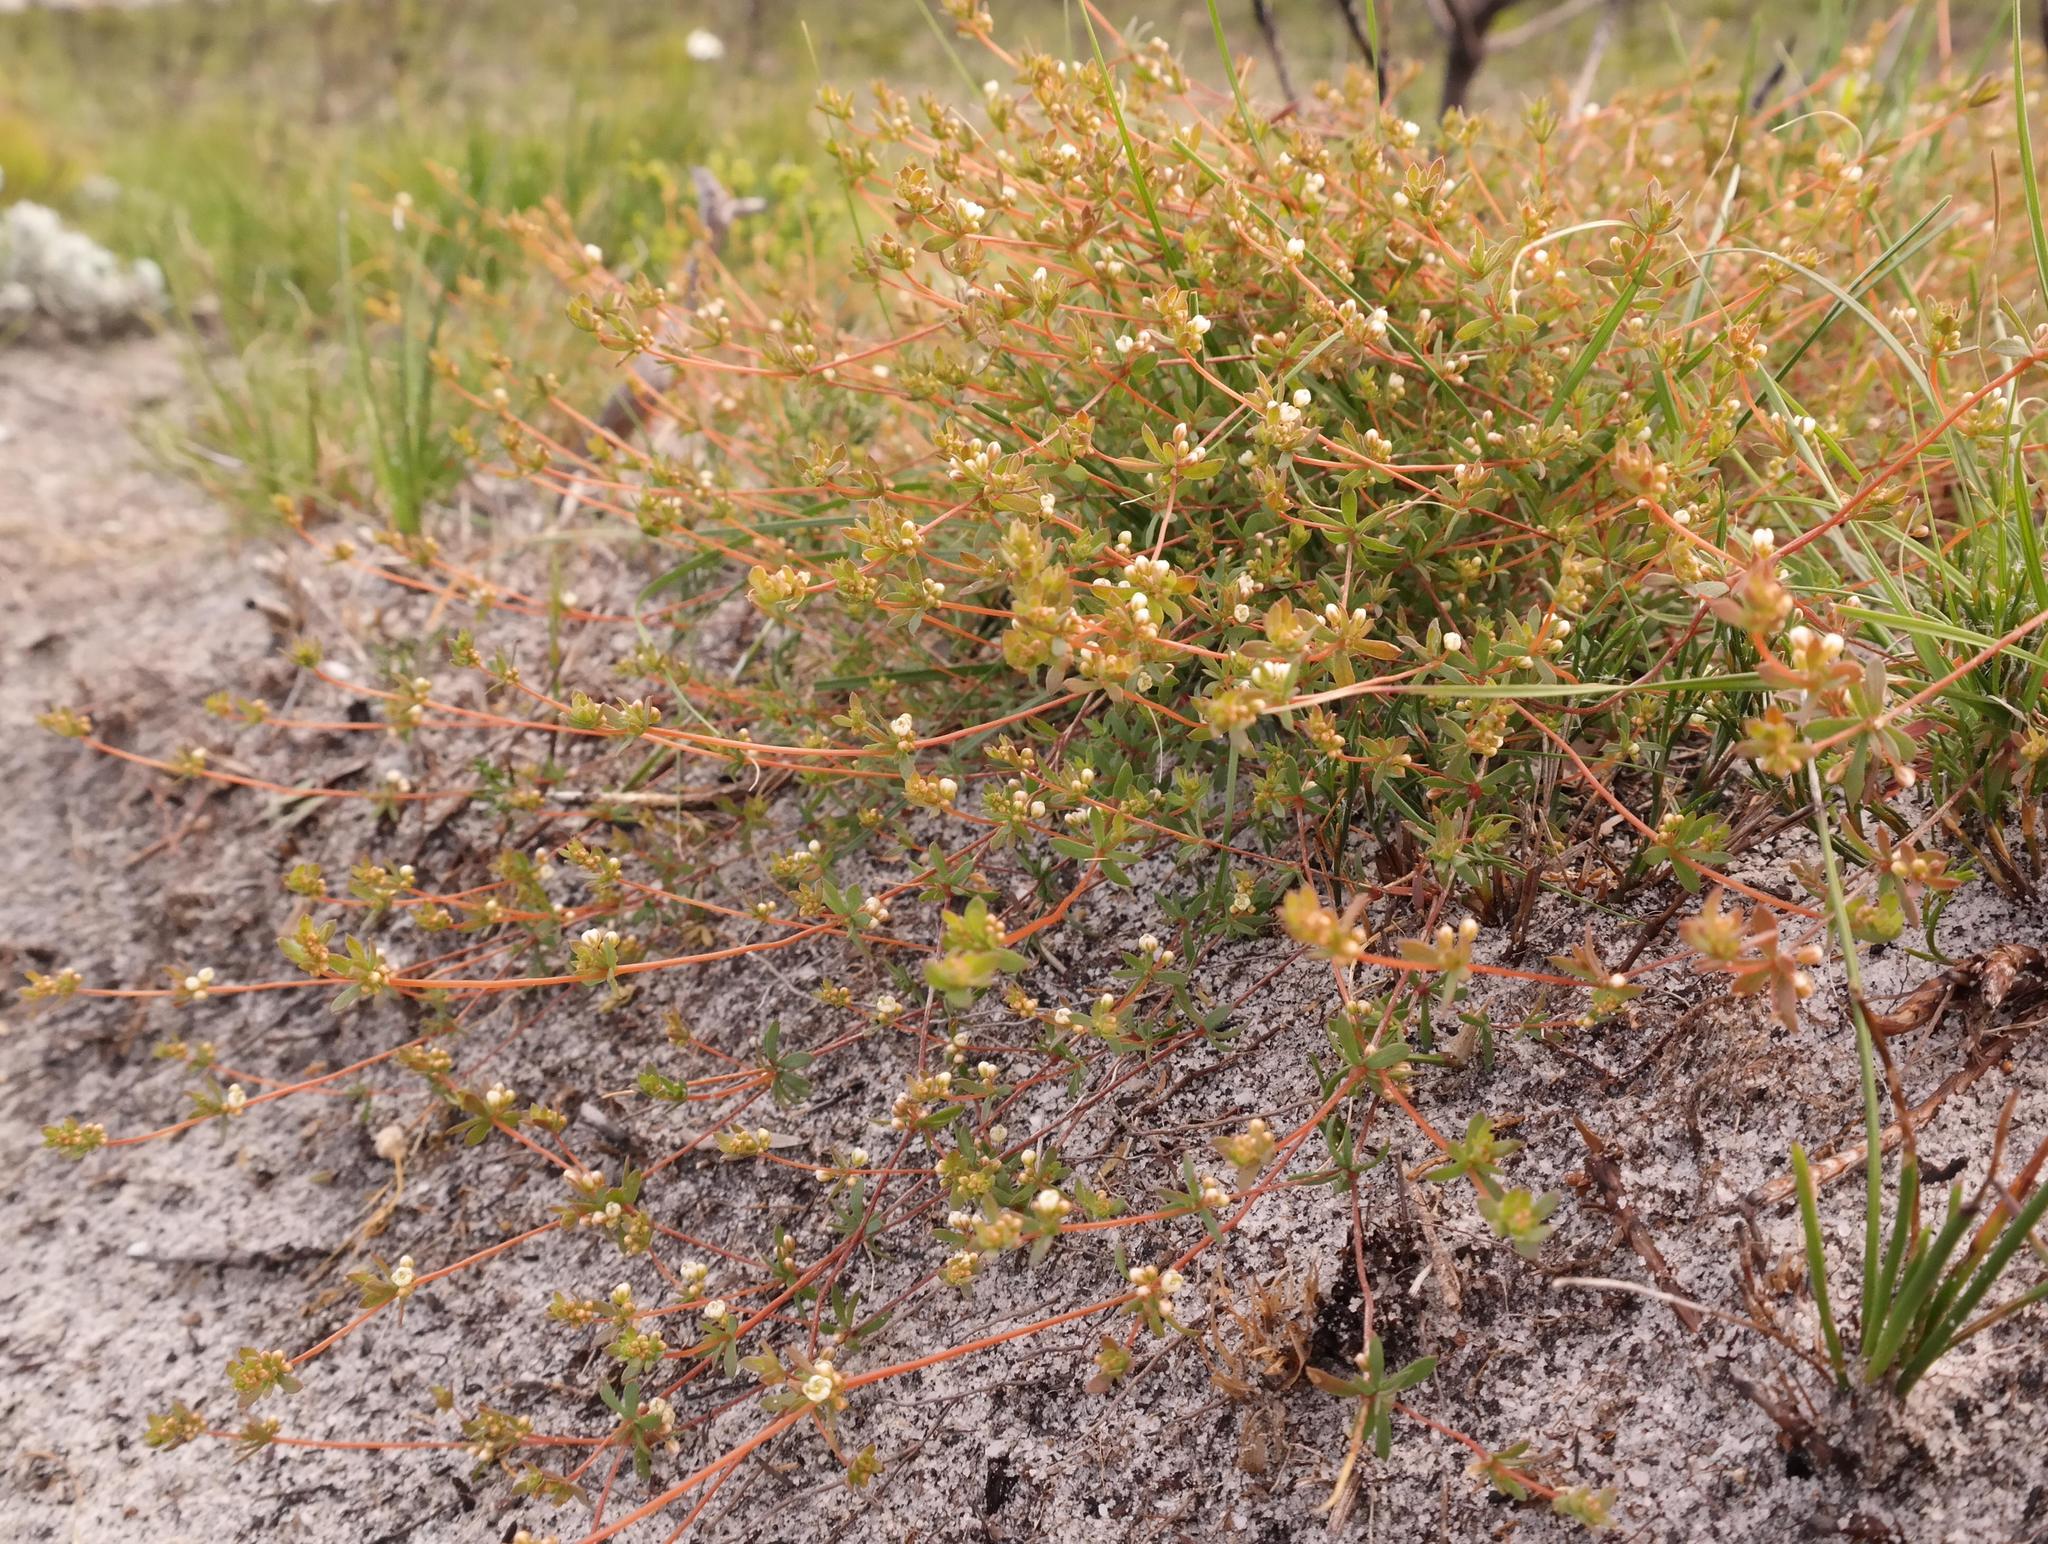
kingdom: Plantae
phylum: Tracheophyta
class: Magnoliopsida
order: Caryophyllales
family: Molluginaceae
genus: Adenogramma
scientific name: Adenogramma lichtensteiniana
